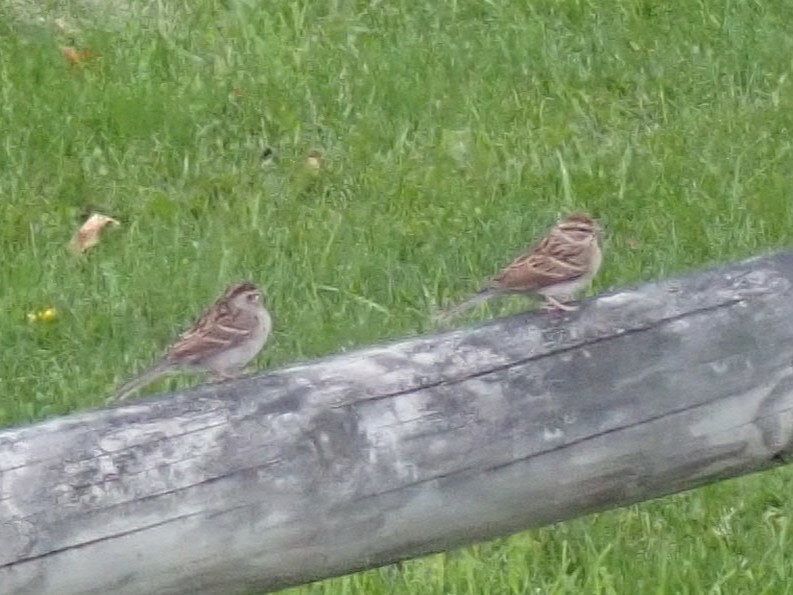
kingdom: Animalia
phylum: Chordata
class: Aves
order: Passeriformes
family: Passerellidae
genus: Spizella
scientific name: Spizella passerina
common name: Chipping sparrow
